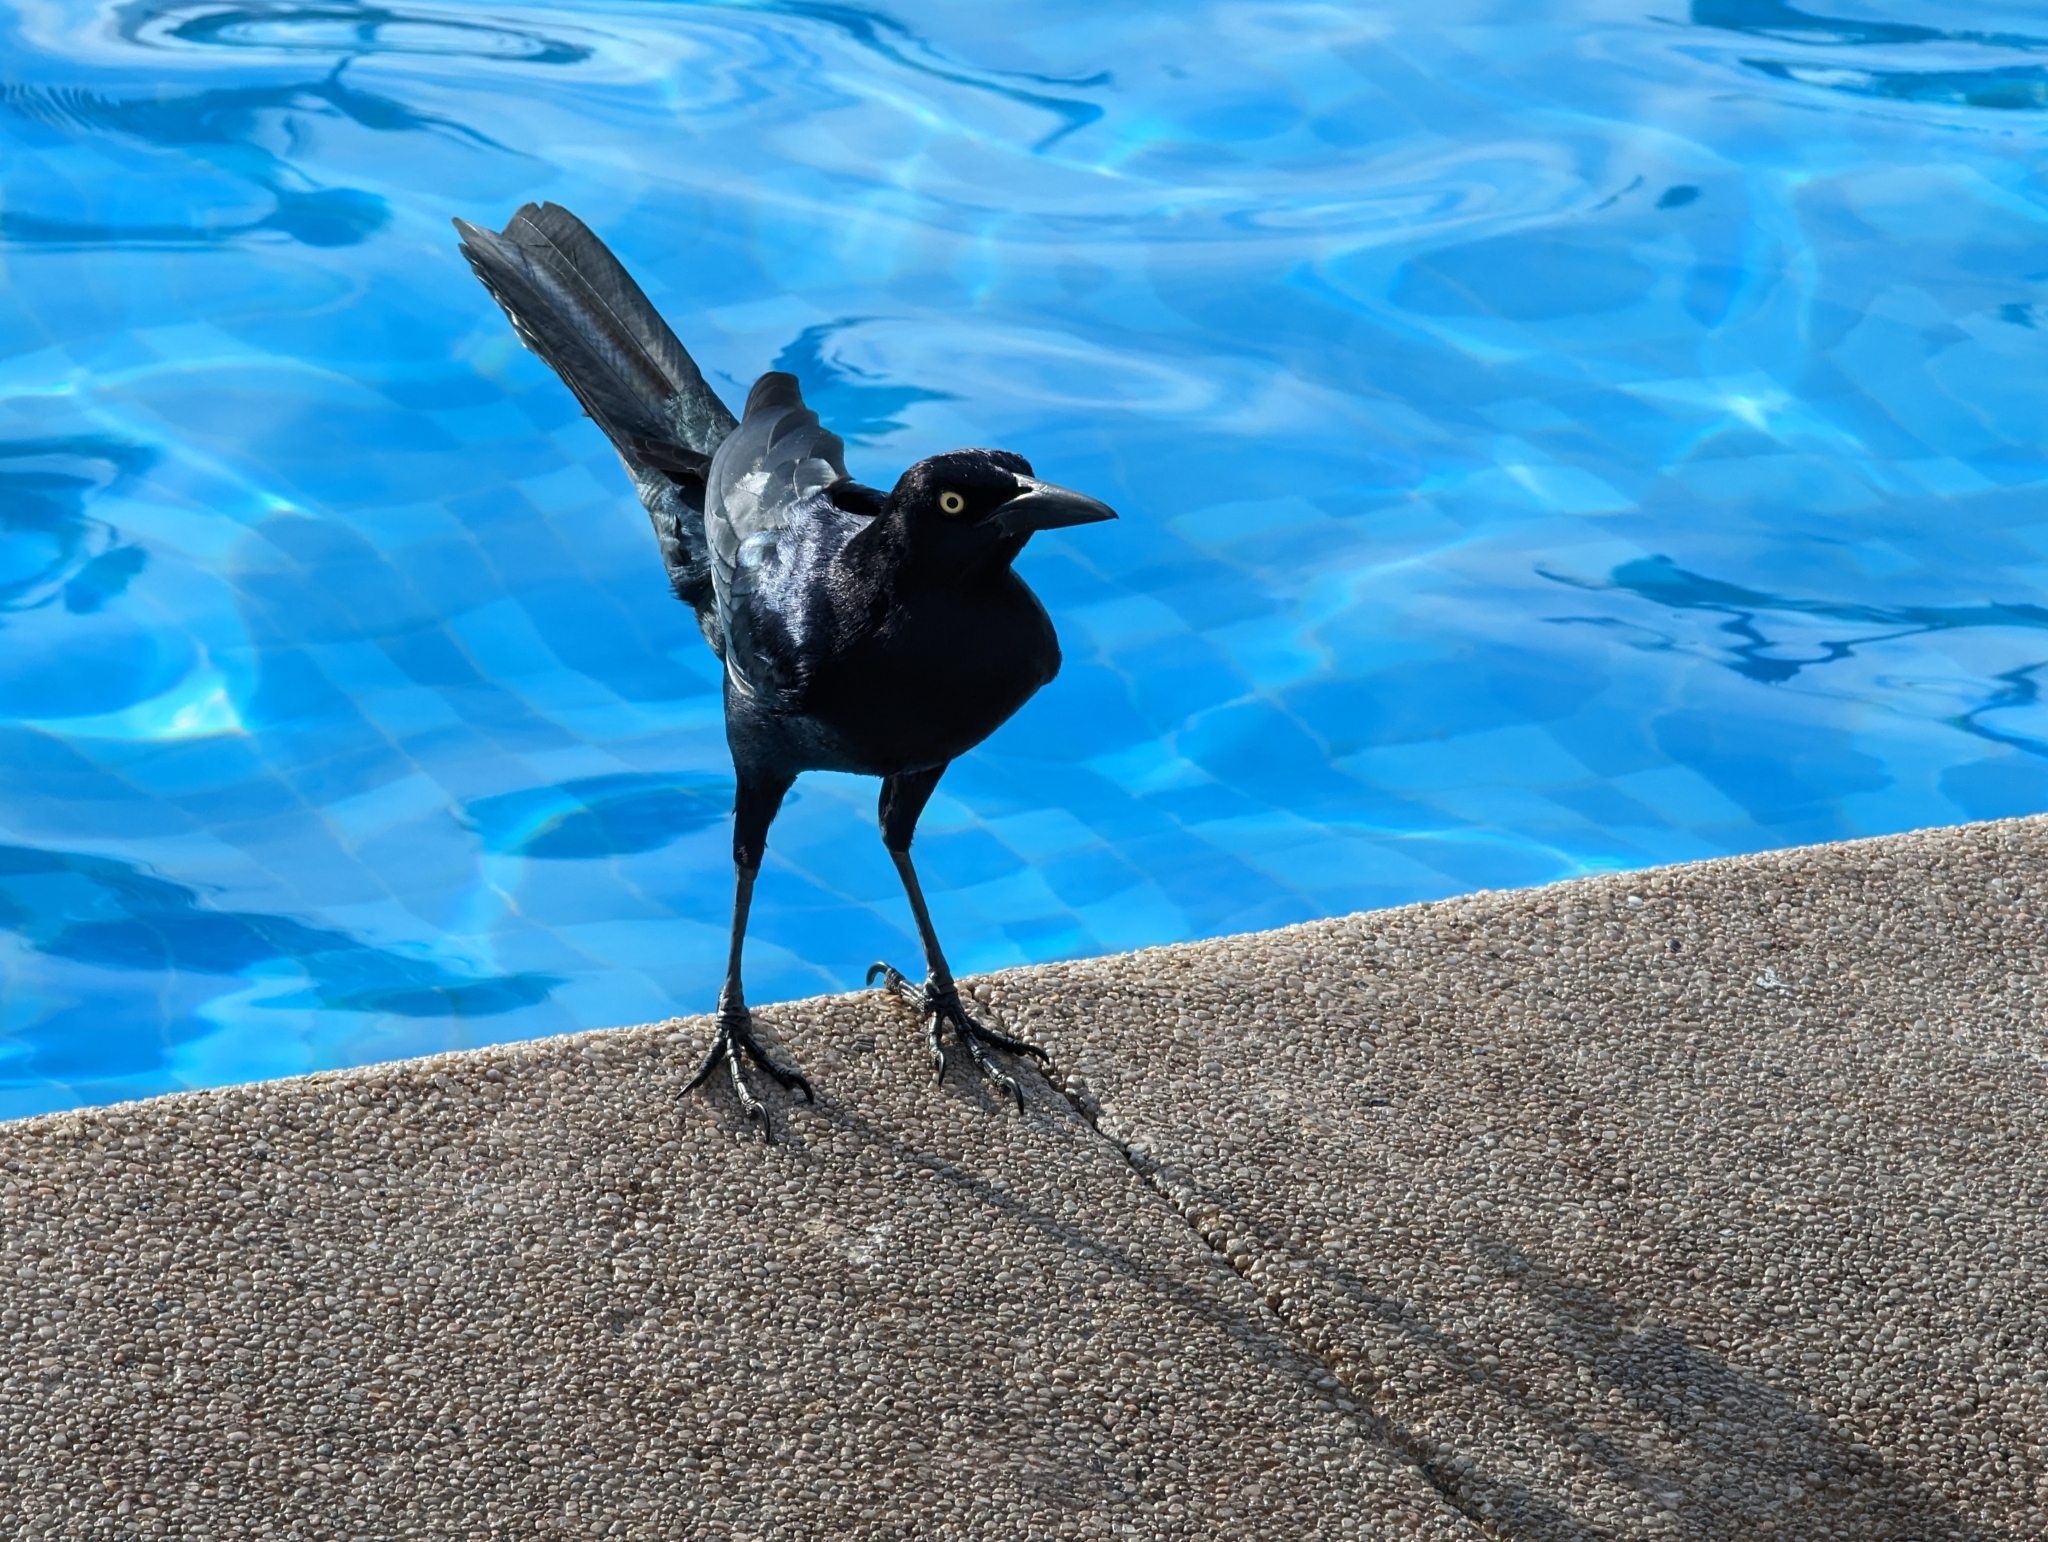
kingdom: Animalia
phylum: Chordata
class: Aves
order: Passeriformes
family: Icteridae
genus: Quiscalus
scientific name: Quiscalus mexicanus
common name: Great-tailed grackle
